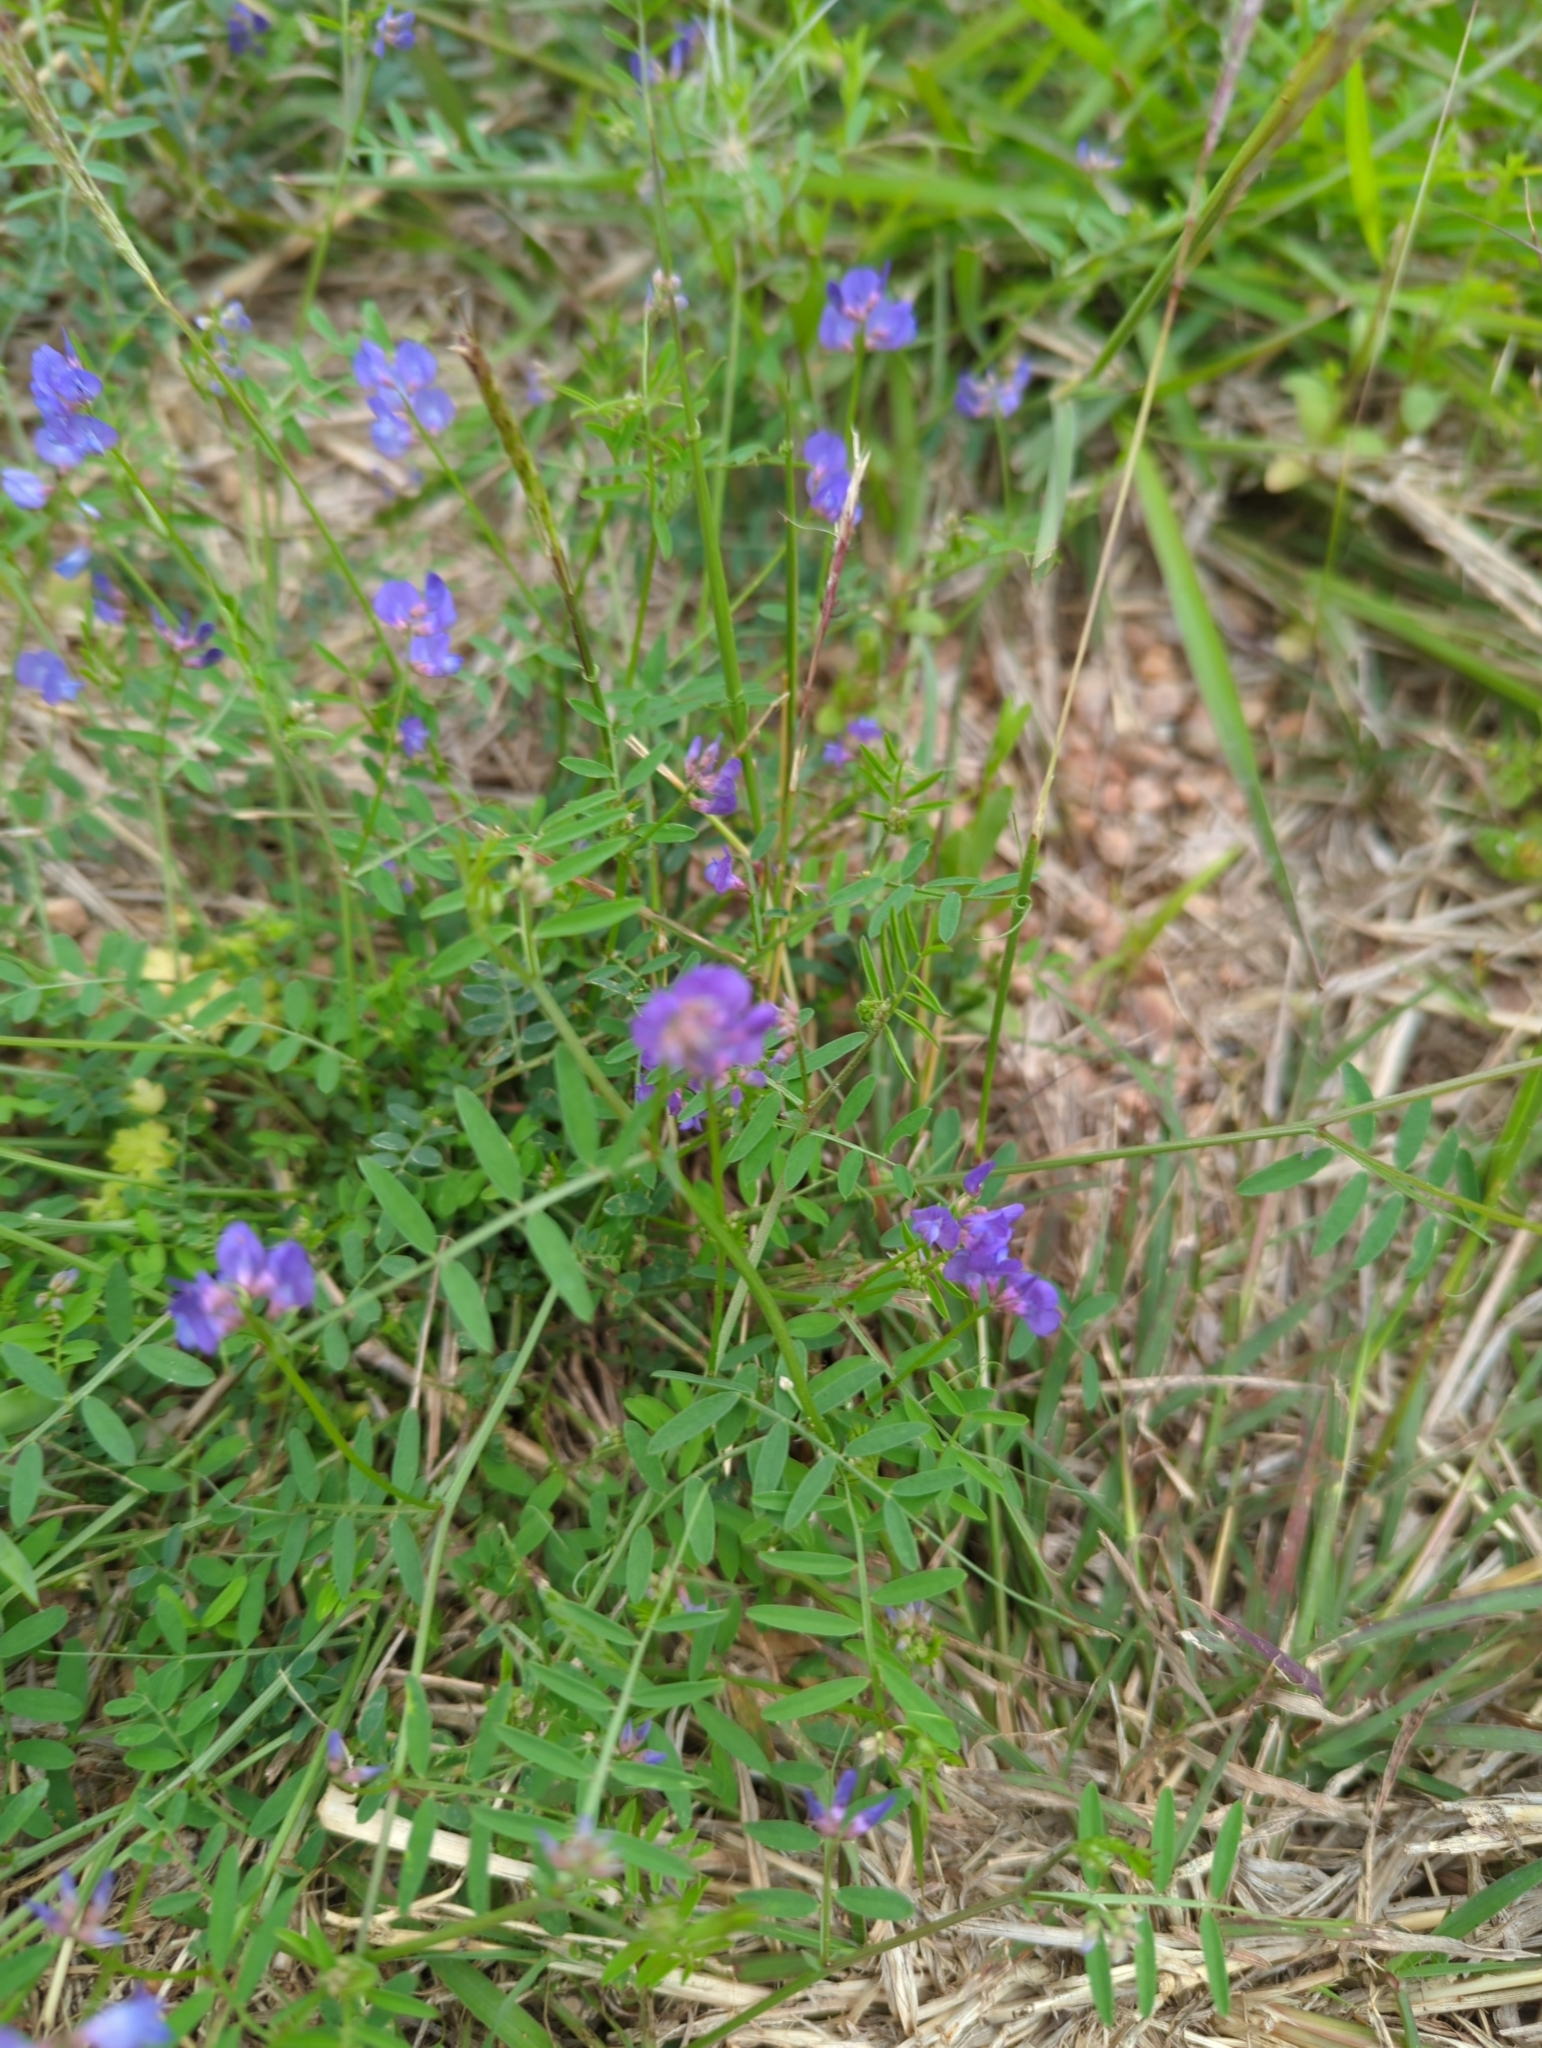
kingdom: Plantae
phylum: Tracheophyta
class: Magnoliopsida
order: Fabales
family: Fabaceae
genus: Vicia
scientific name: Vicia ludoviciana
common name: Louisiana vetch
